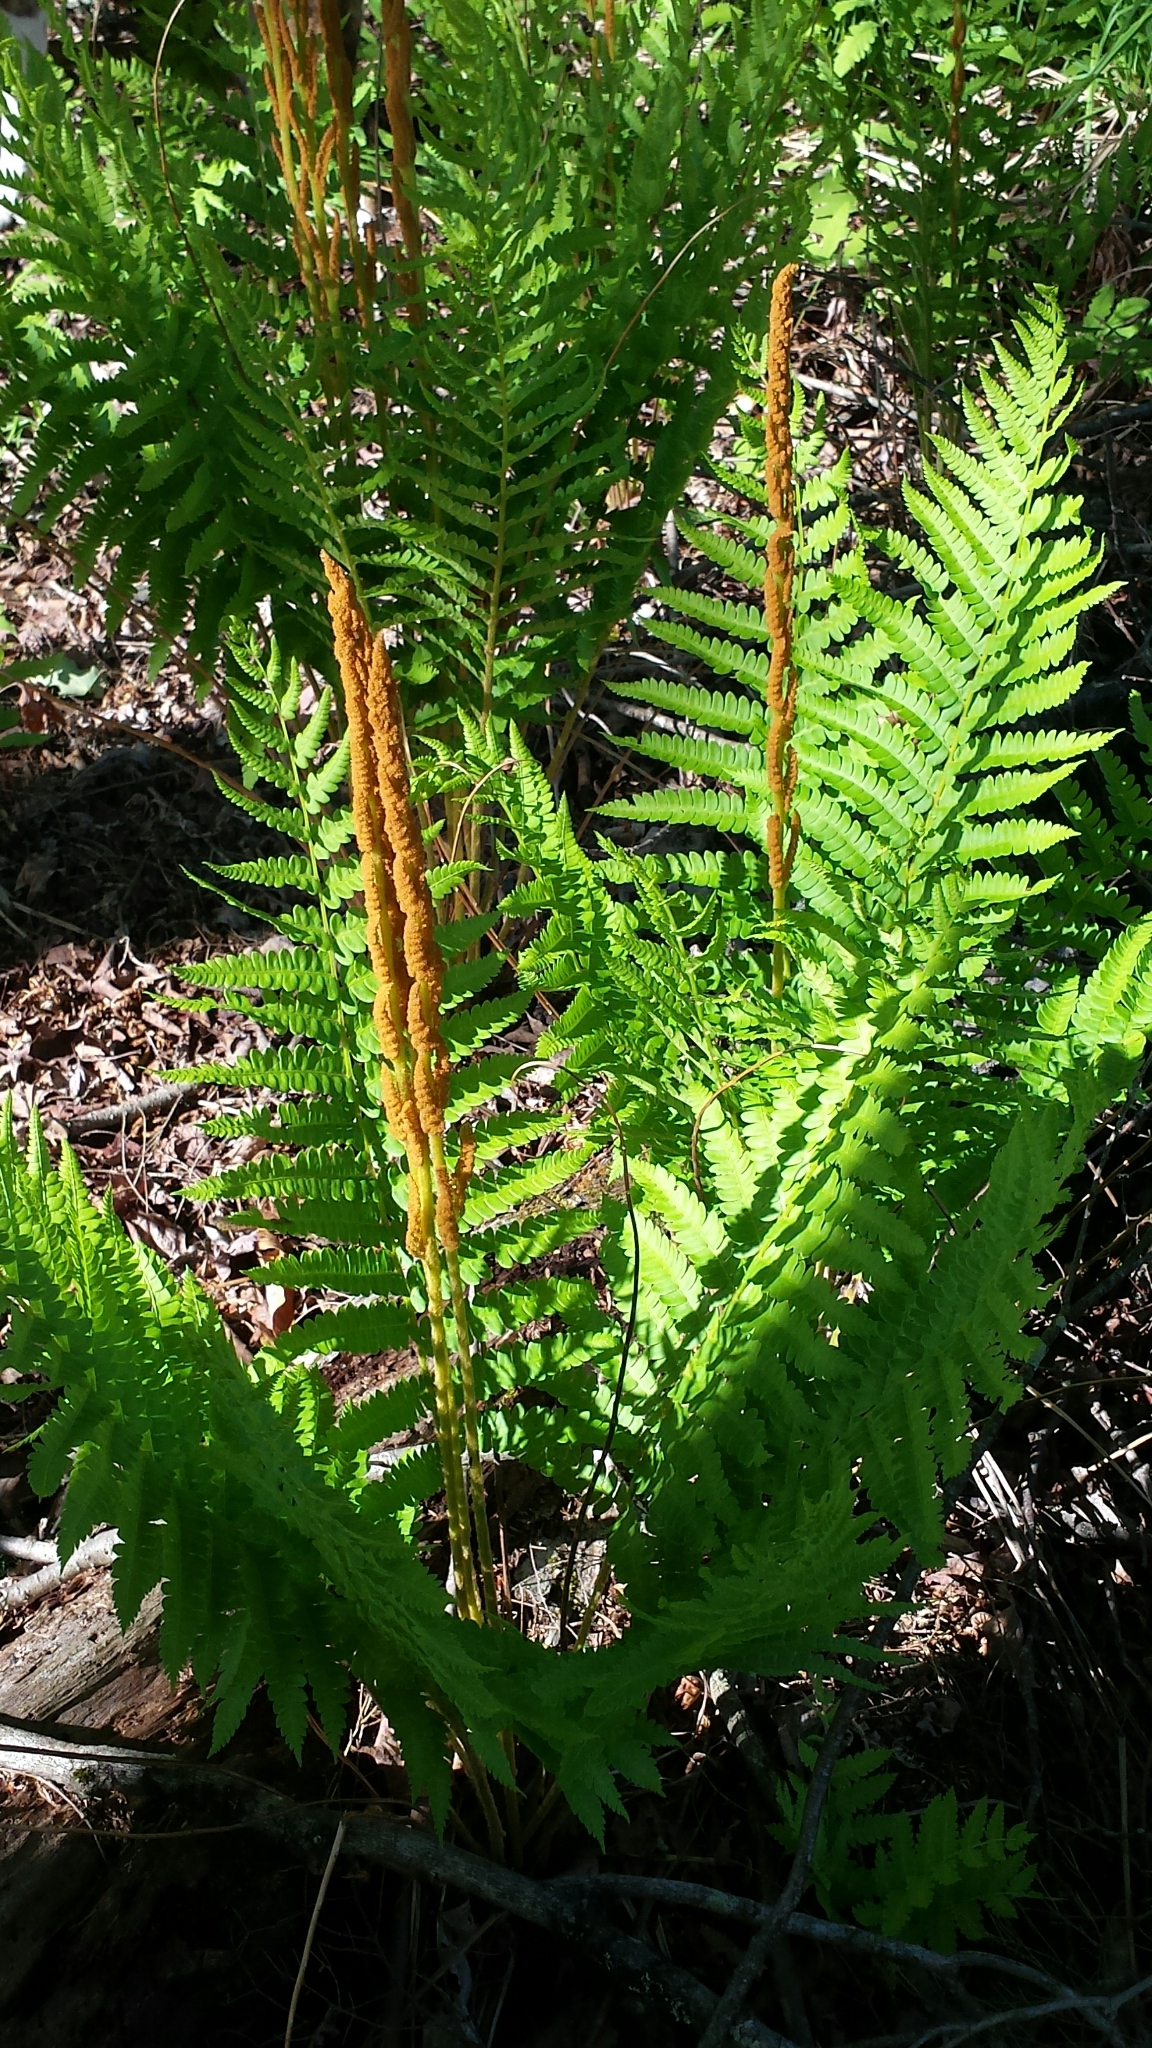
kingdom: Plantae
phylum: Tracheophyta
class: Polypodiopsida
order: Osmundales
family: Osmundaceae
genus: Osmundastrum
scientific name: Osmundastrum cinnamomeum
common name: Cinnamon fern
